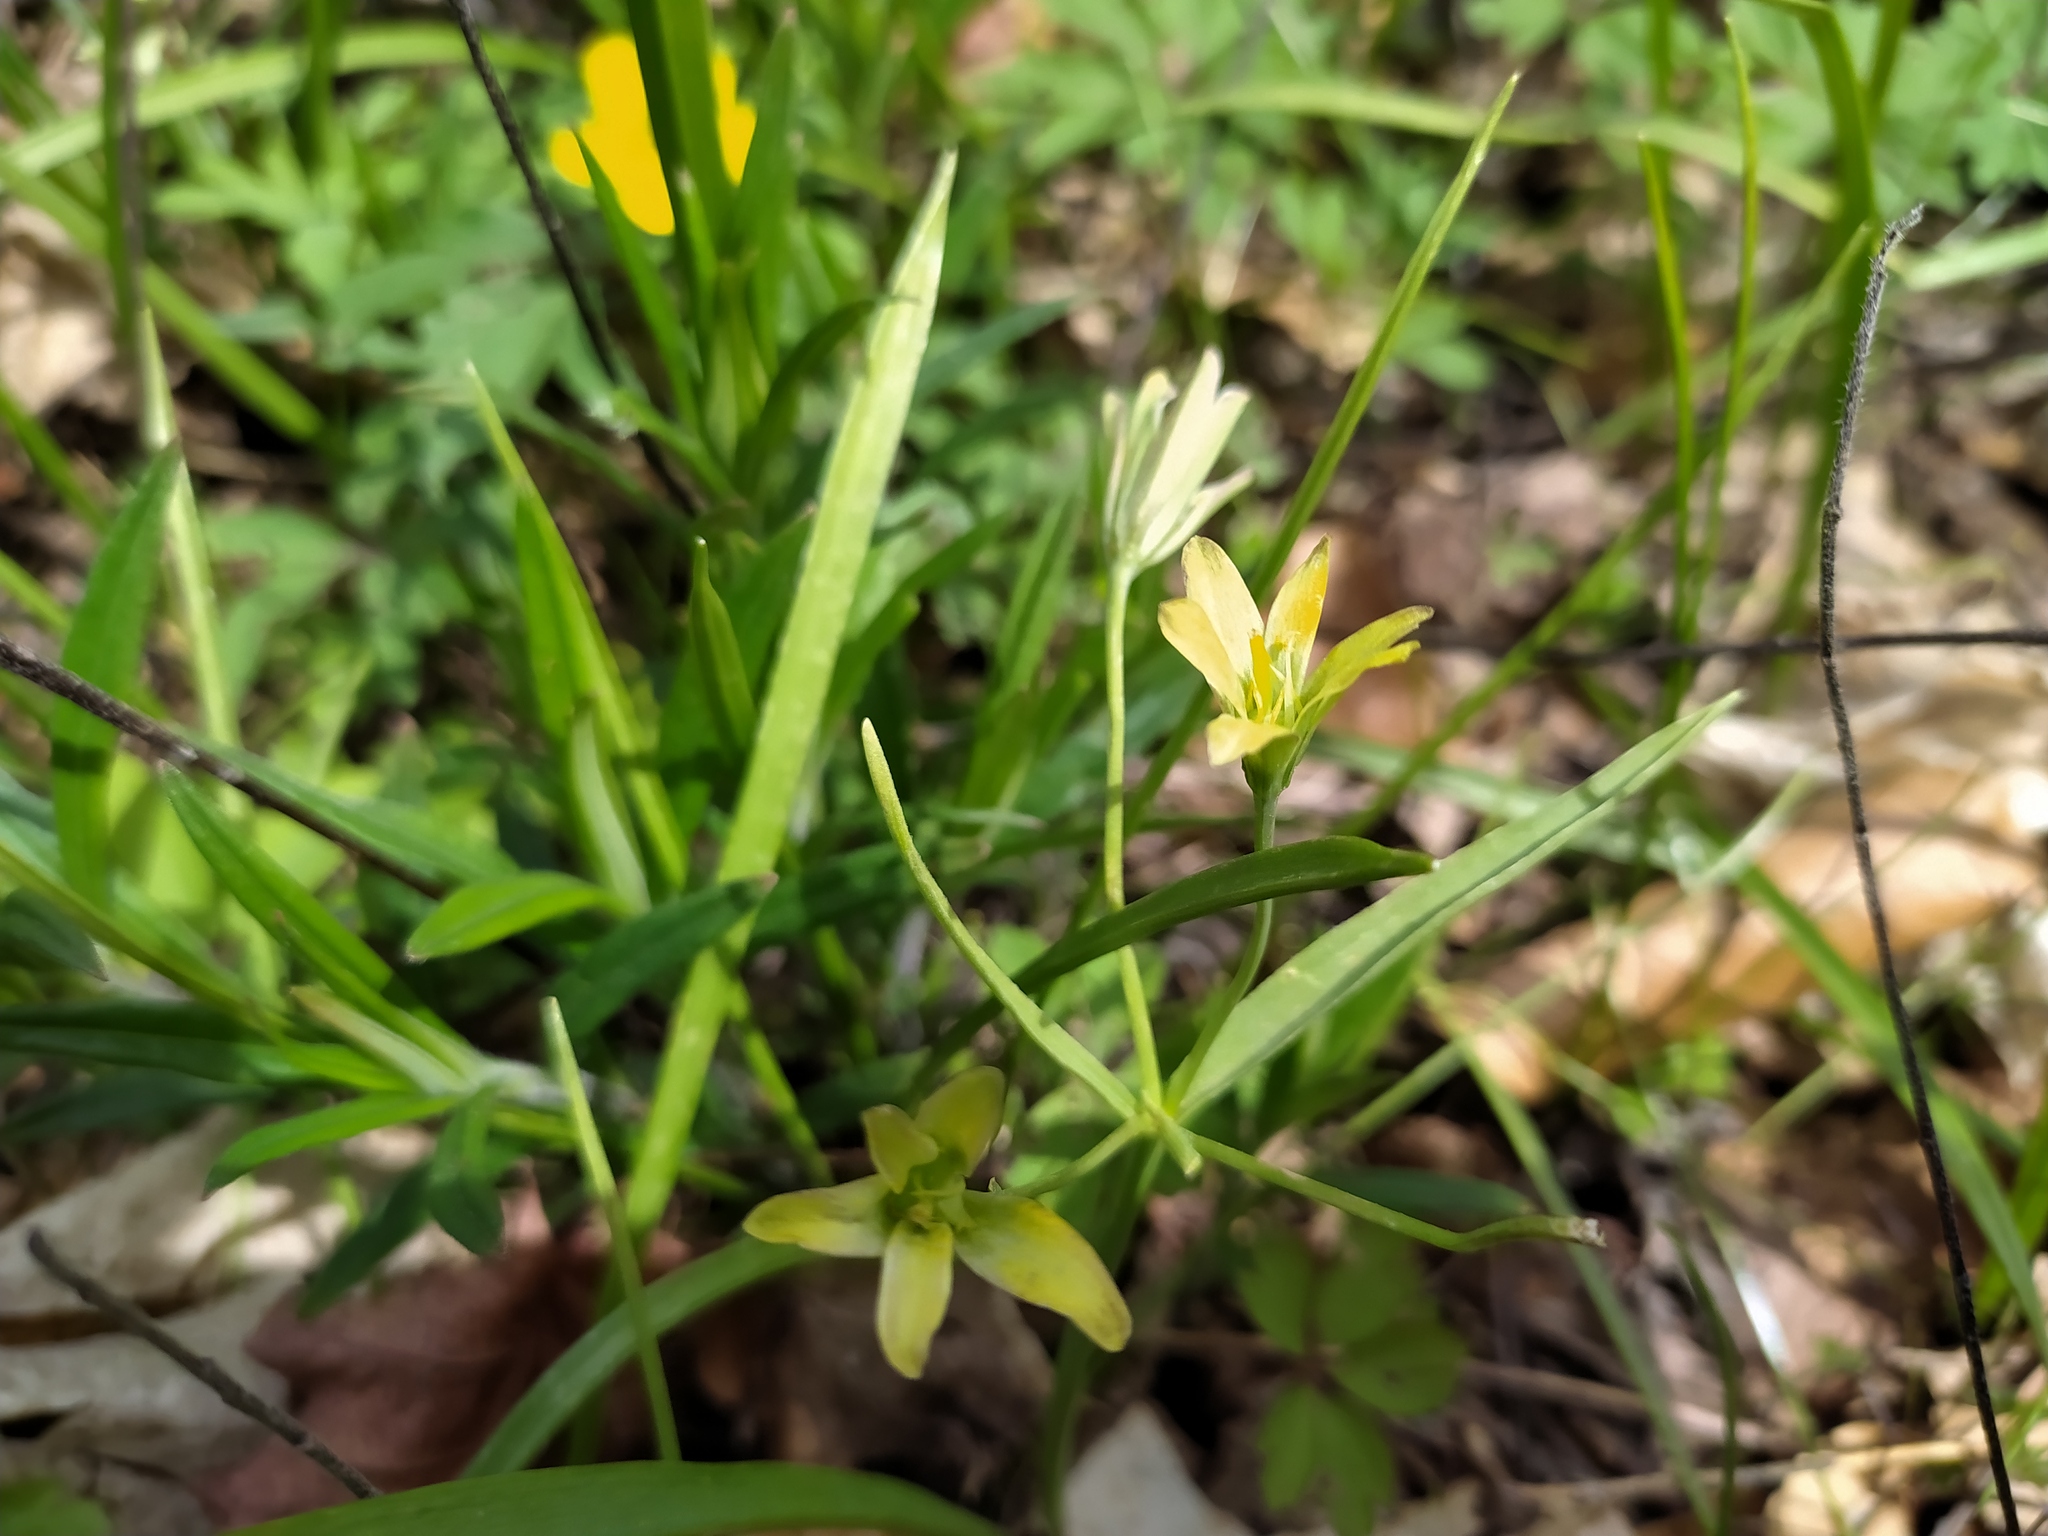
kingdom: Plantae
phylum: Tracheophyta
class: Liliopsida
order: Liliales
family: Liliaceae
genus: Gagea
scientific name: Gagea lutea
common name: Yellow star-of-bethlehem
